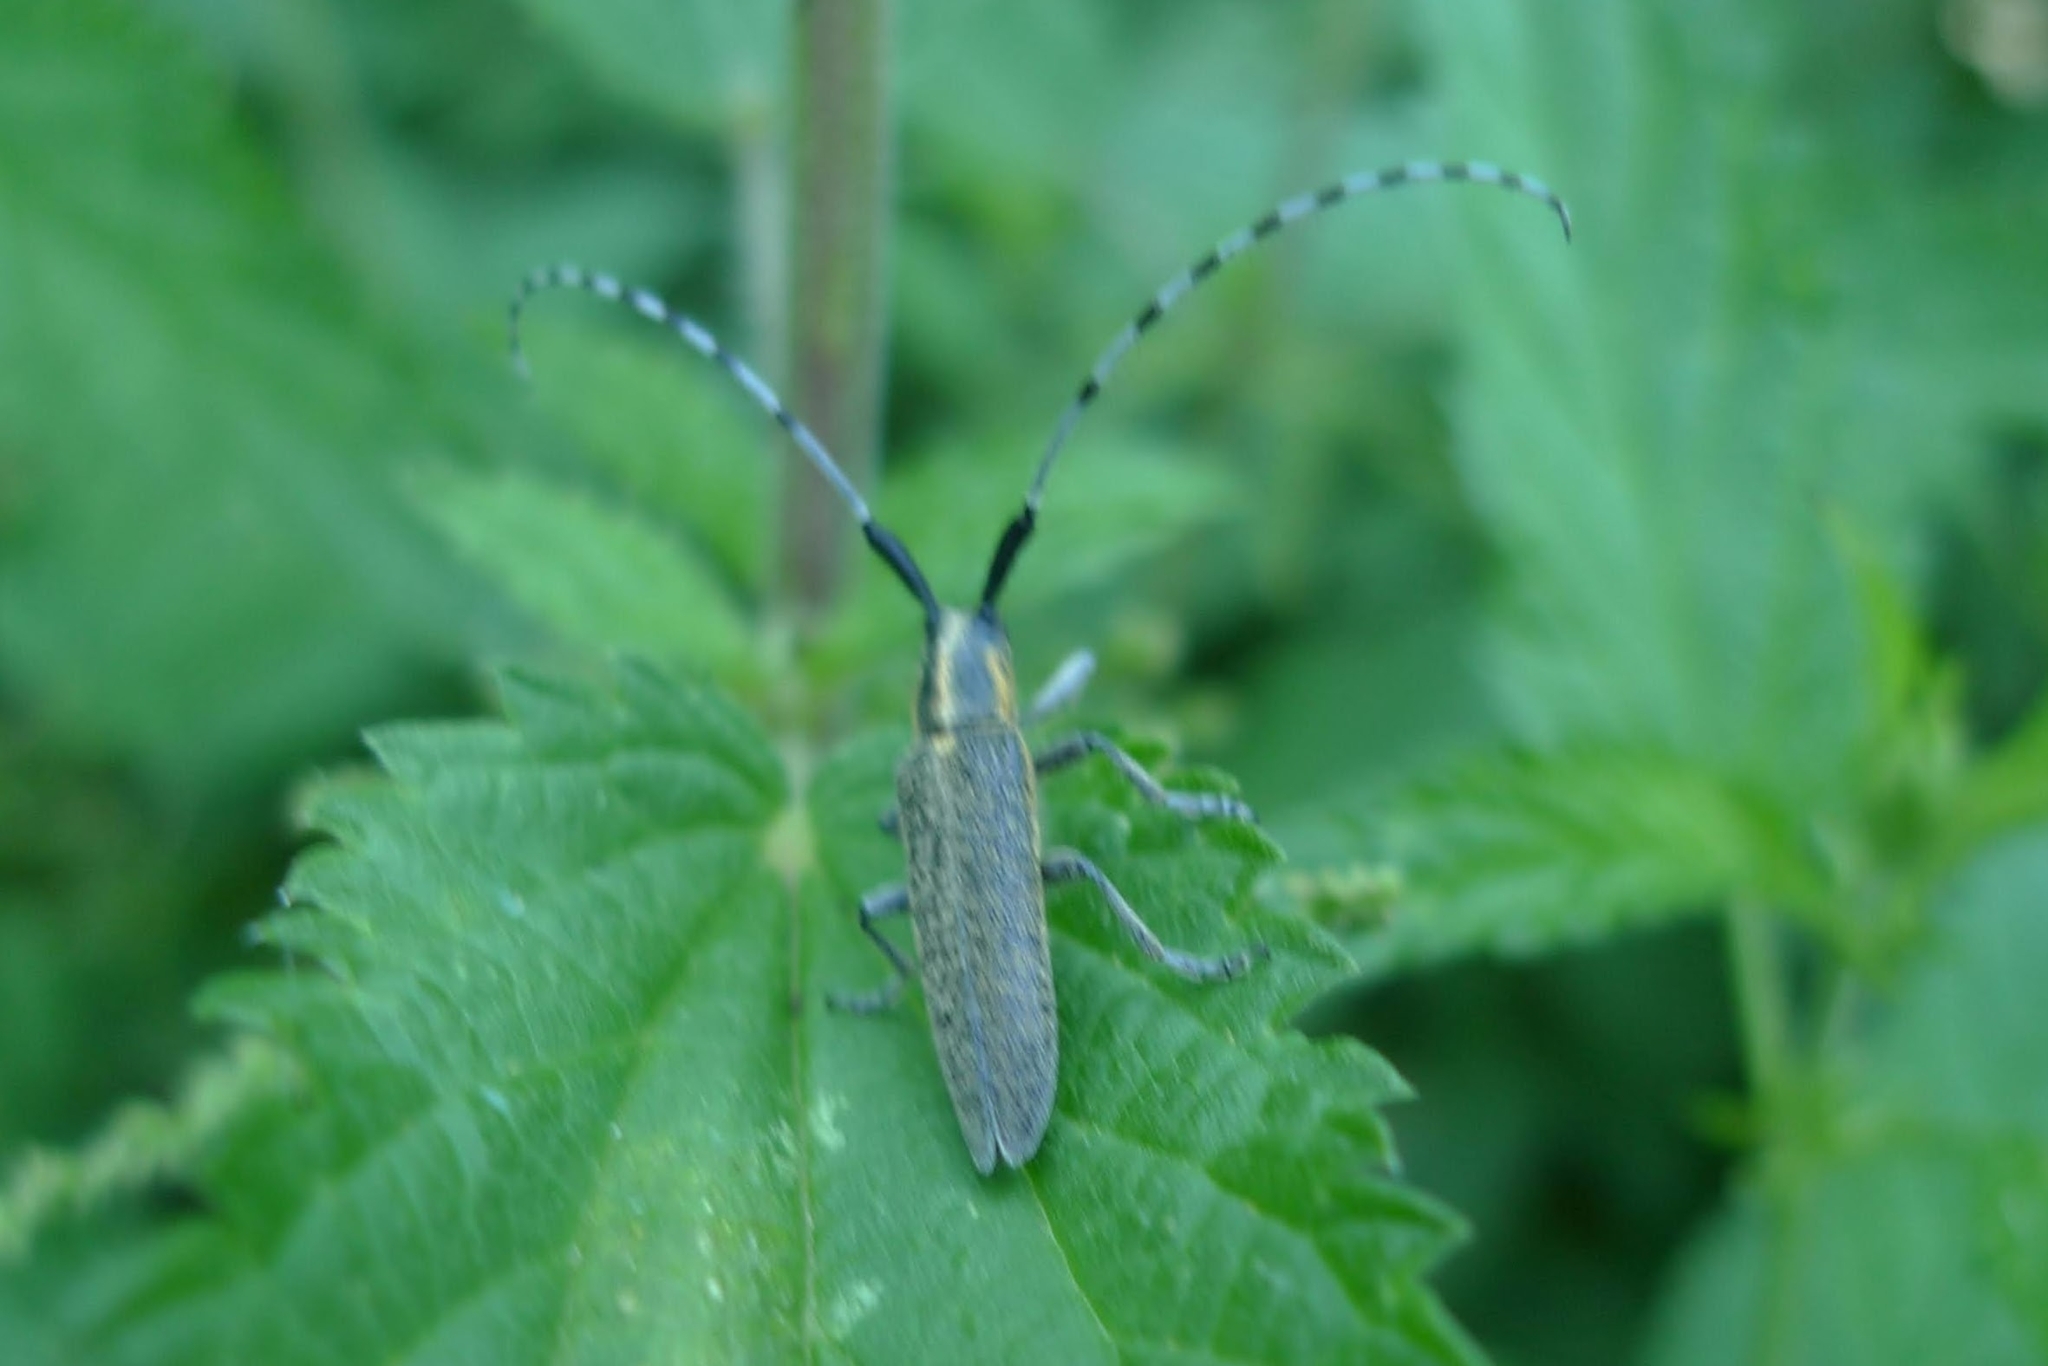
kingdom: Animalia
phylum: Arthropoda
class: Insecta
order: Coleoptera
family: Cerambycidae
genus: Agapanthia
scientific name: Agapanthia villosoviridescens
